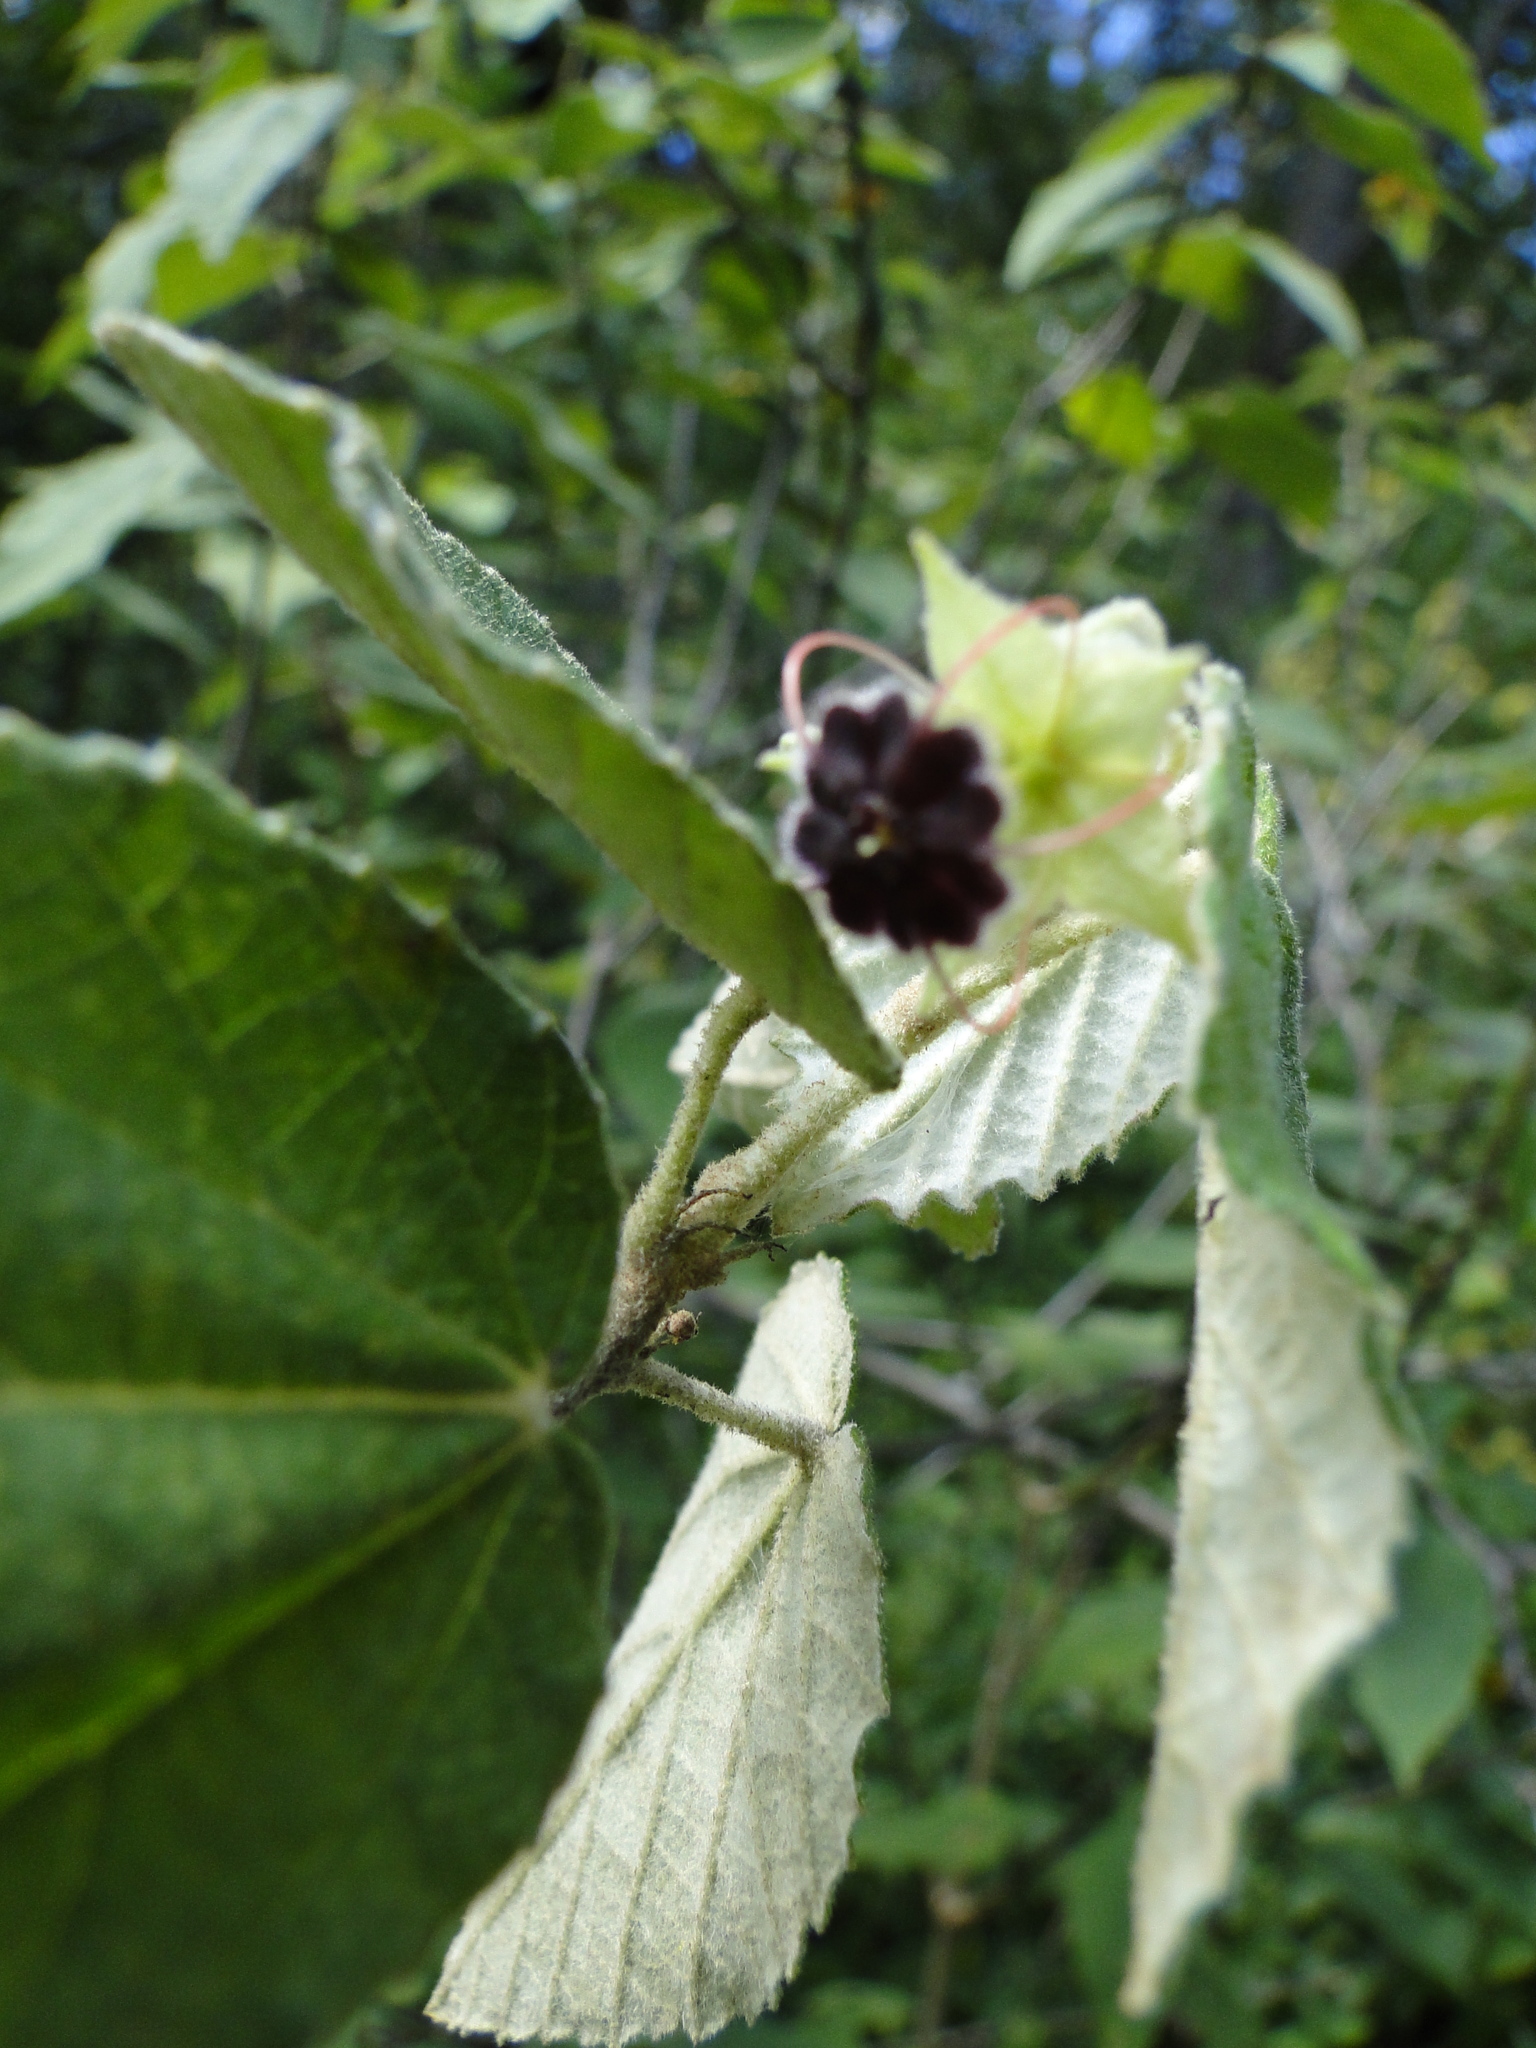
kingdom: Plantae
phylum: Tracheophyta
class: Magnoliopsida
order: Malvales
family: Malvaceae
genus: Ayenia
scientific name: Ayenia ovata
